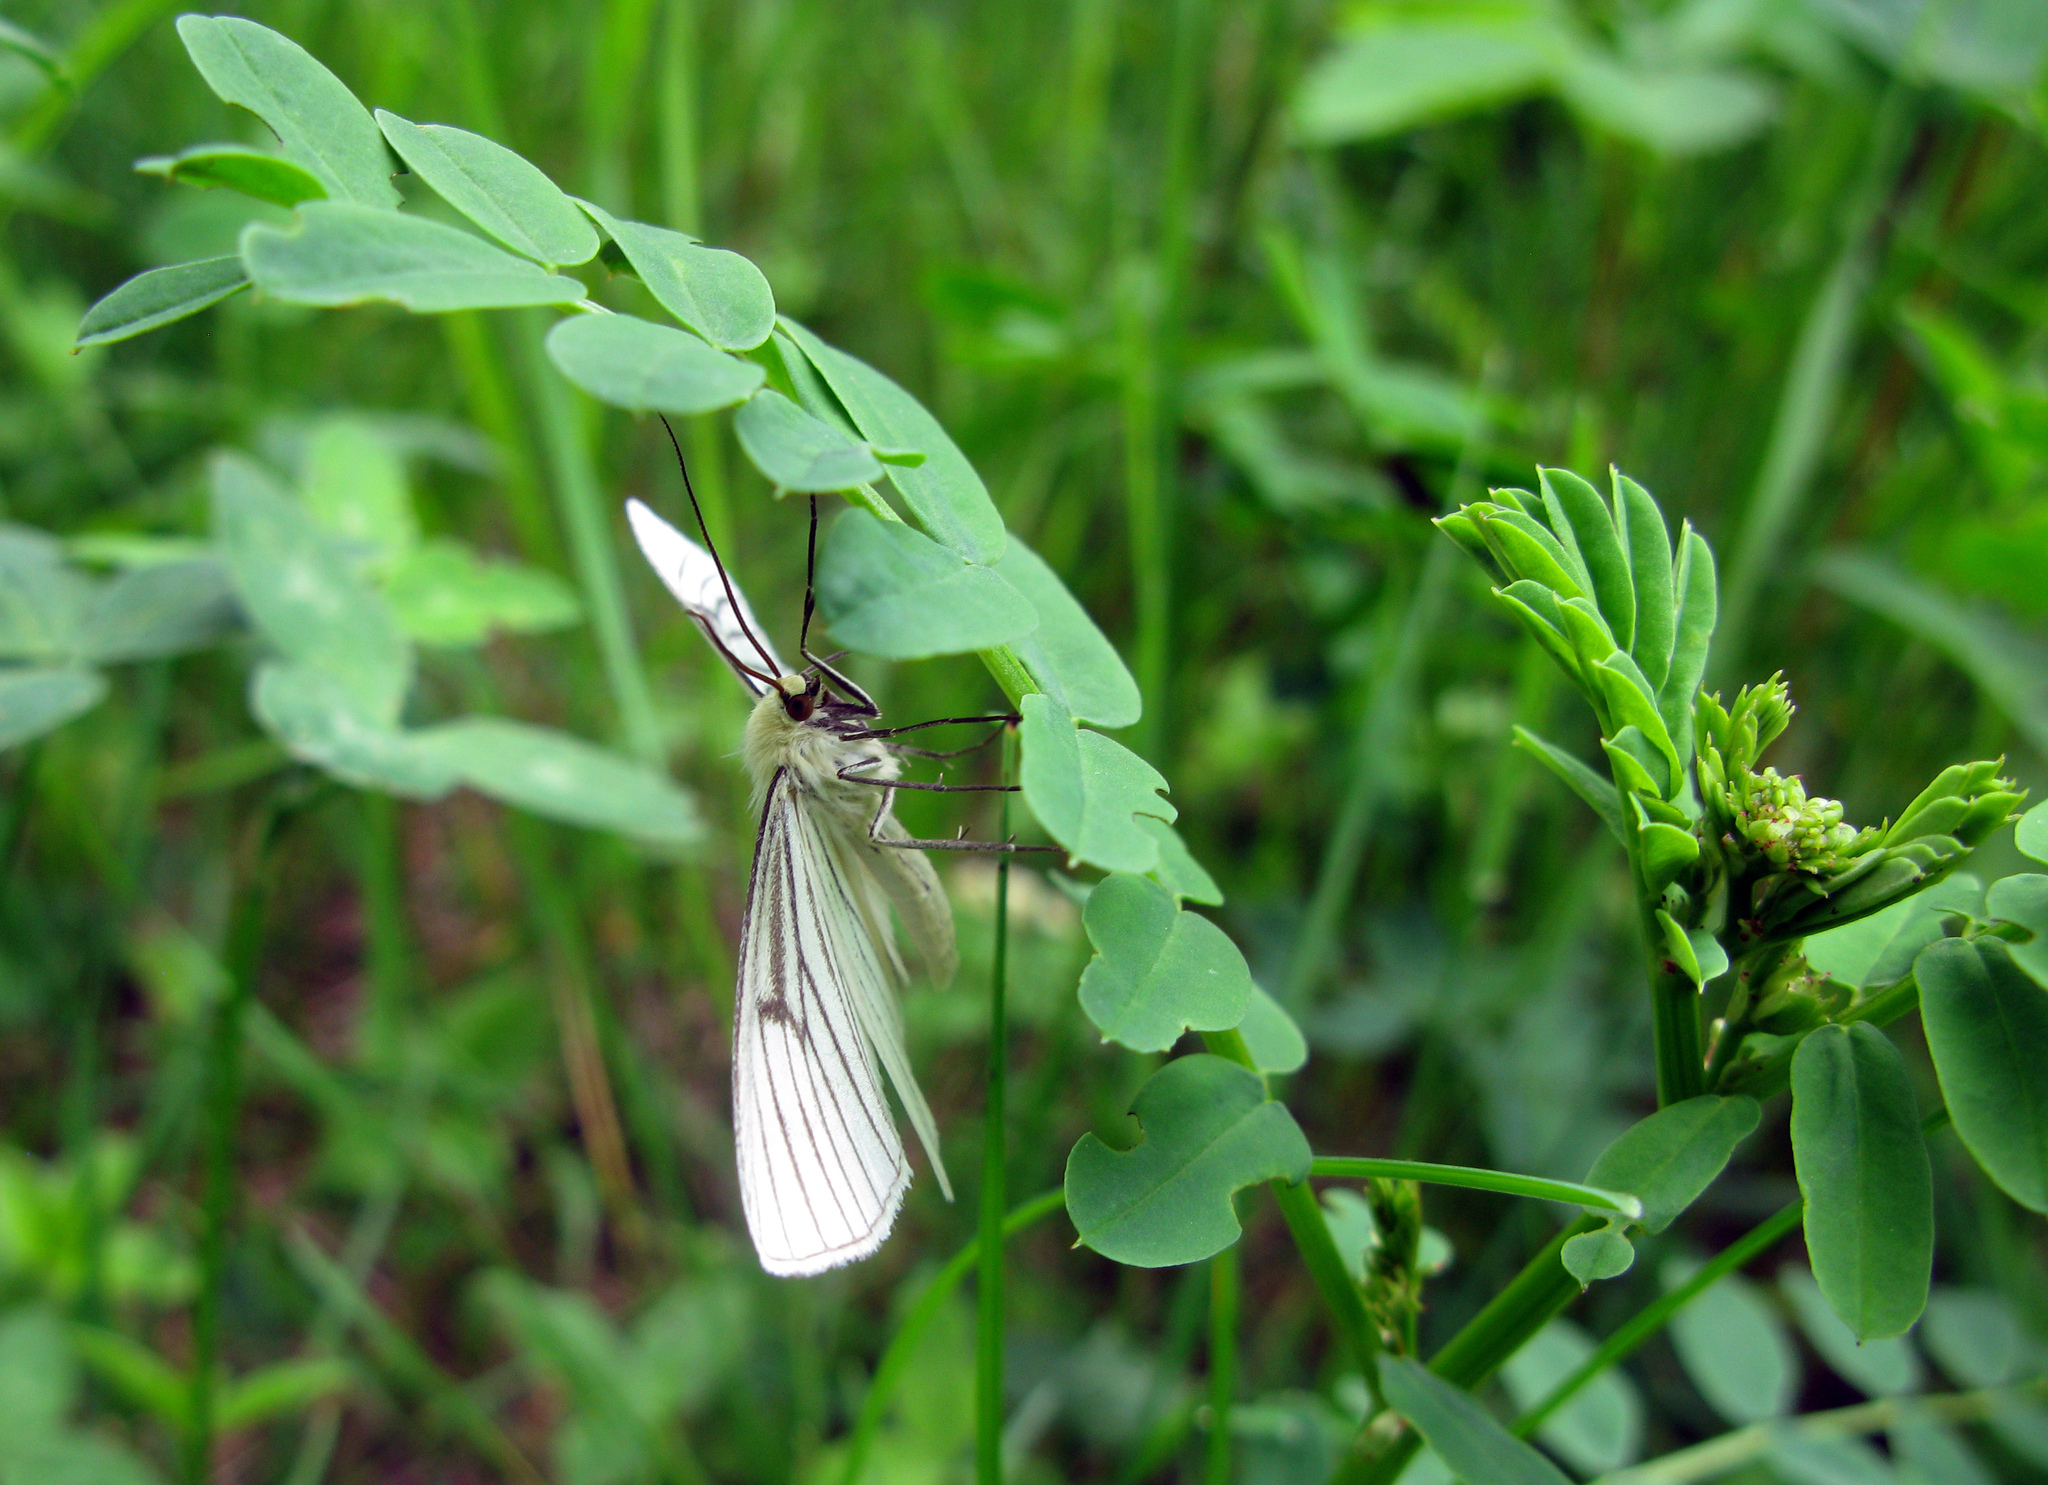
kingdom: Animalia
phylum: Arthropoda
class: Insecta
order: Lepidoptera
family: Geometridae
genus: Siona
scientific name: Siona lineata
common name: Black-veined moth
